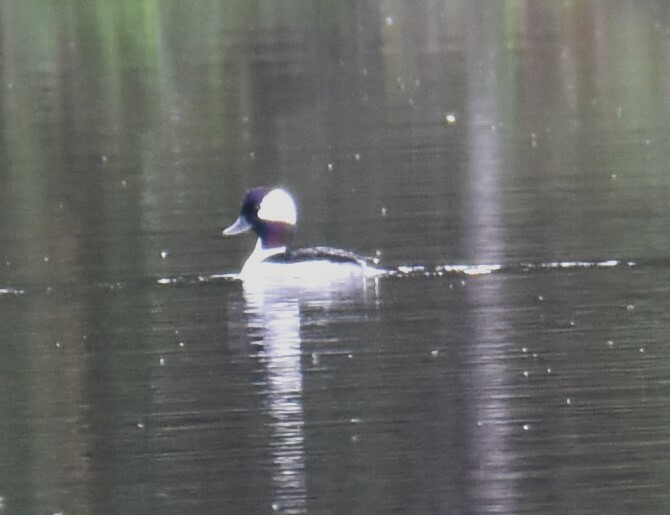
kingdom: Animalia
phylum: Chordata
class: Aves
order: Anseriformes
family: Anatidae
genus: Bucephala
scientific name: Bucephala albeola
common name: Bufflehead
